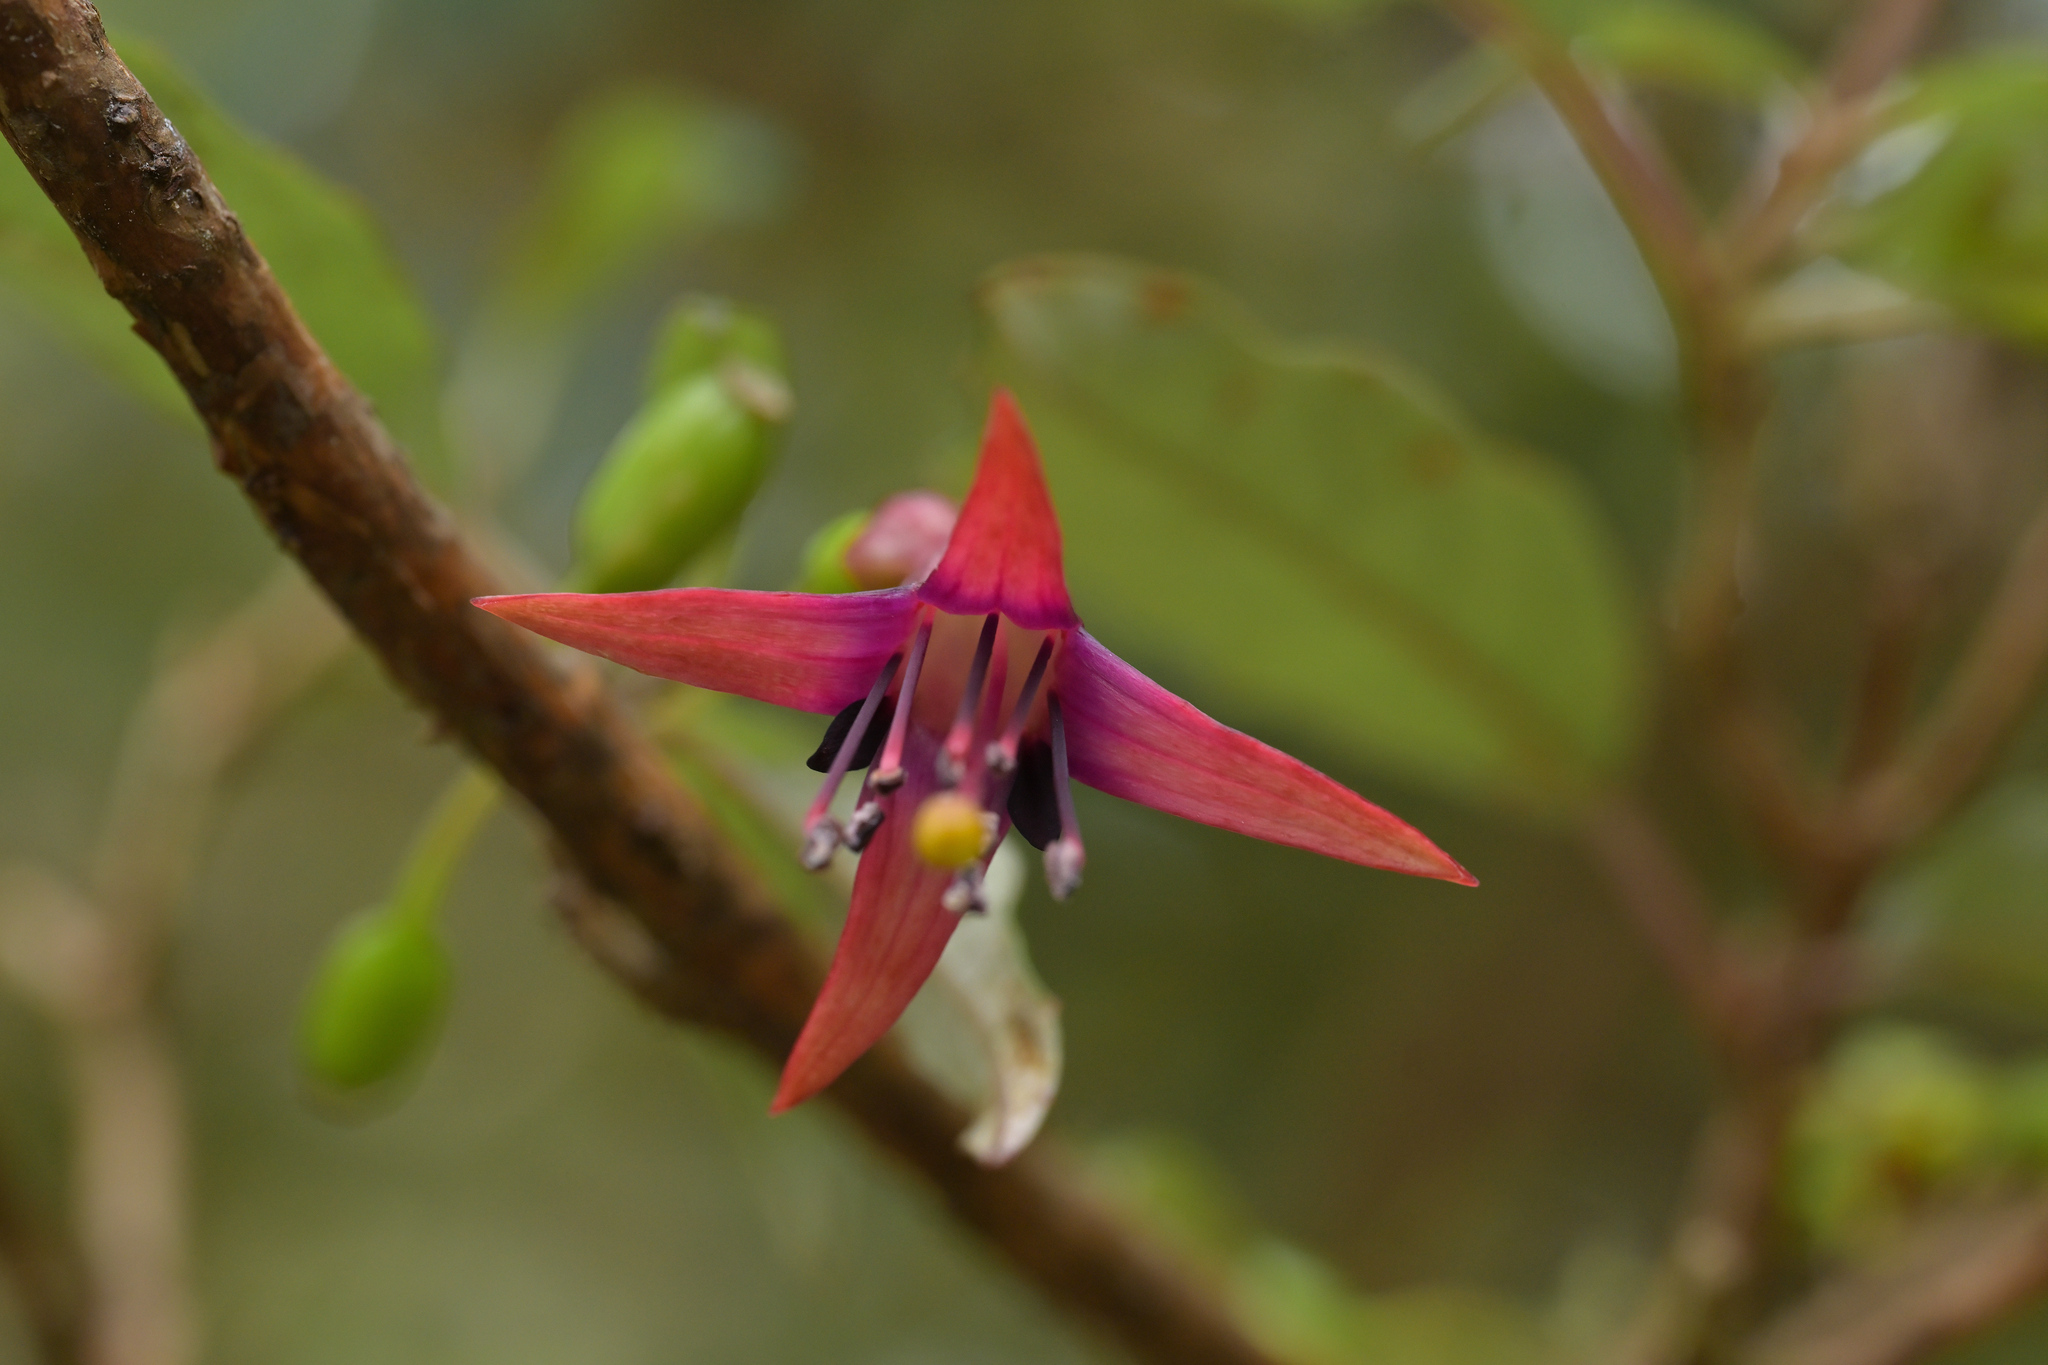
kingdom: Plantae
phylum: Tracheophyta
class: Magnoliopsida
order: Myrtales
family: Onagraceae
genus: Fuchsia
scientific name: Fuchsia excorticata
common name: Tree fuchsia
